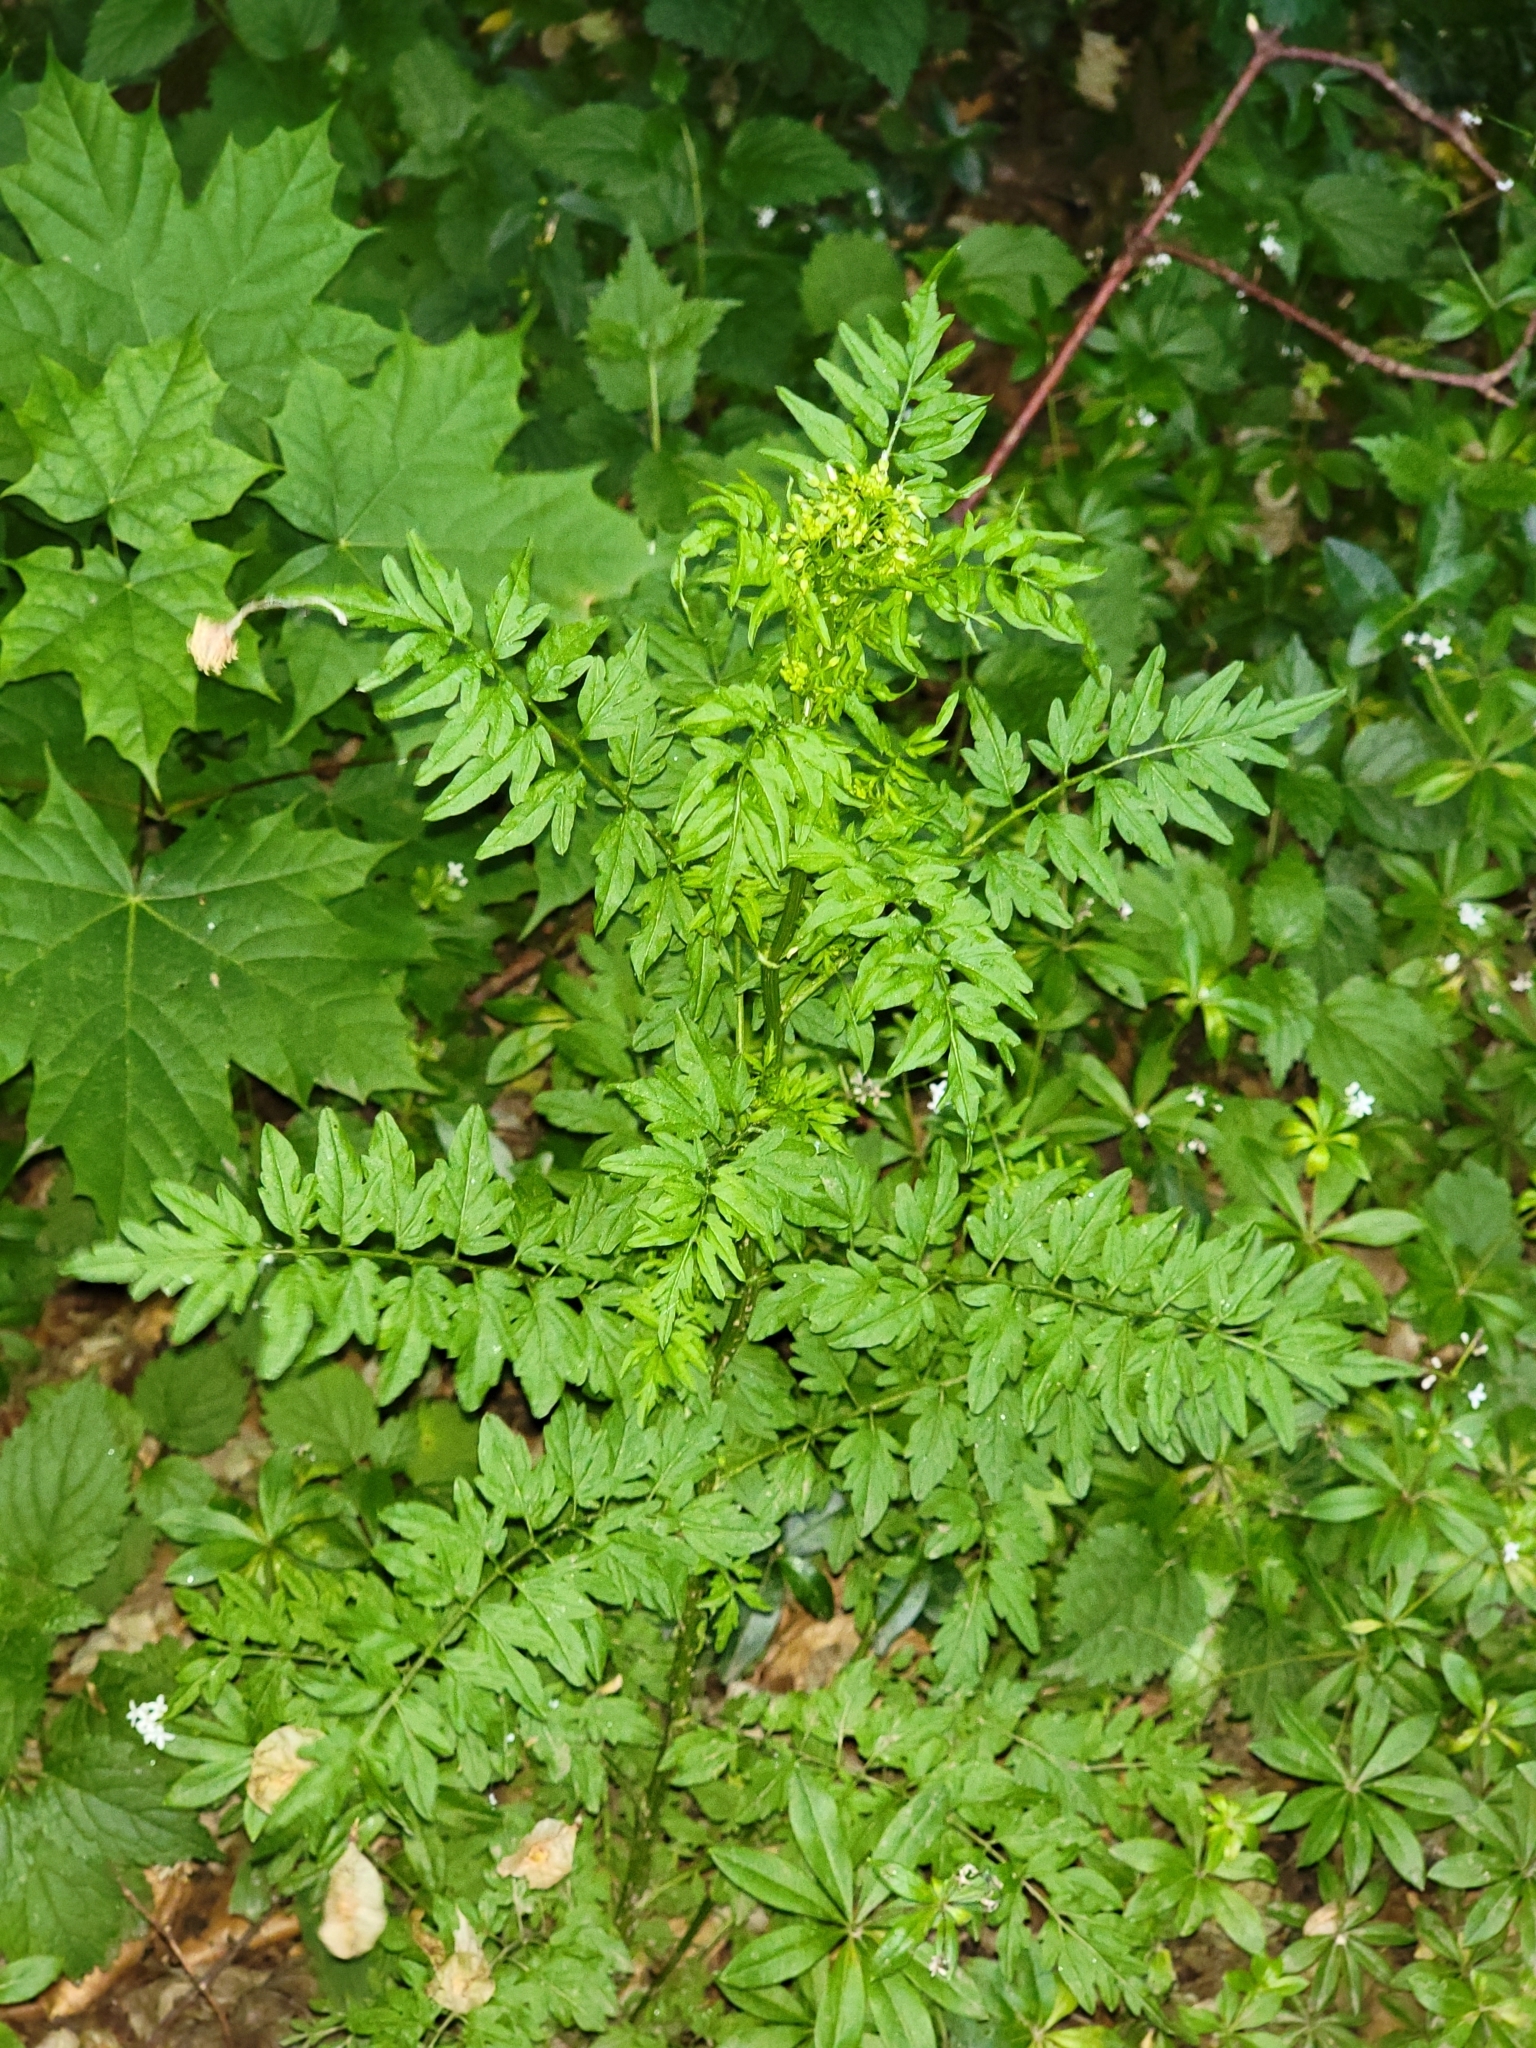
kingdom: Plantae
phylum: Tracheophyta
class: Magnoliopsida
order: Brassicales
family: Brassicaceae
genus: Cardamine
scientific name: Cardamine impatiens
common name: Narrow-leaved bitter-cress
